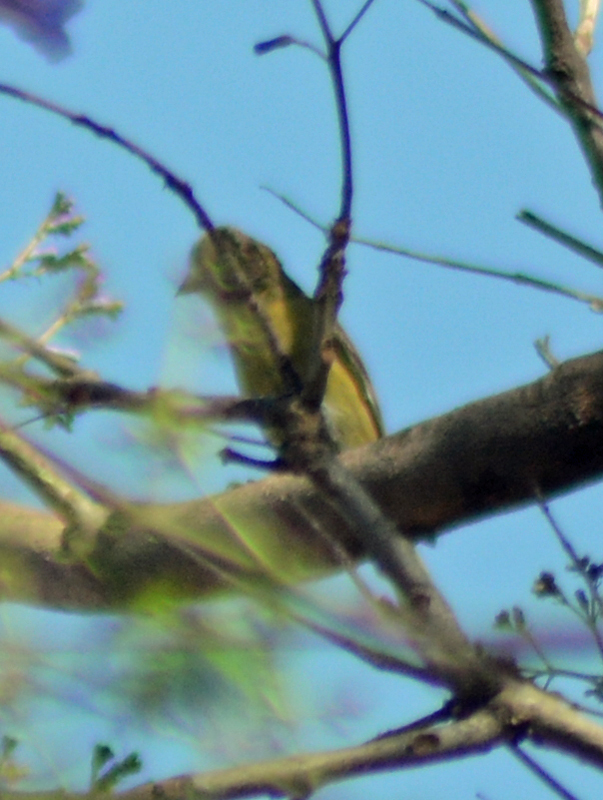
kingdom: Animalia
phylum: Chordata
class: Aves
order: Passeriformes
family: Fringillidae
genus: Spinus
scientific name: Spinus psaltria
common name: Lesser goldfinch
